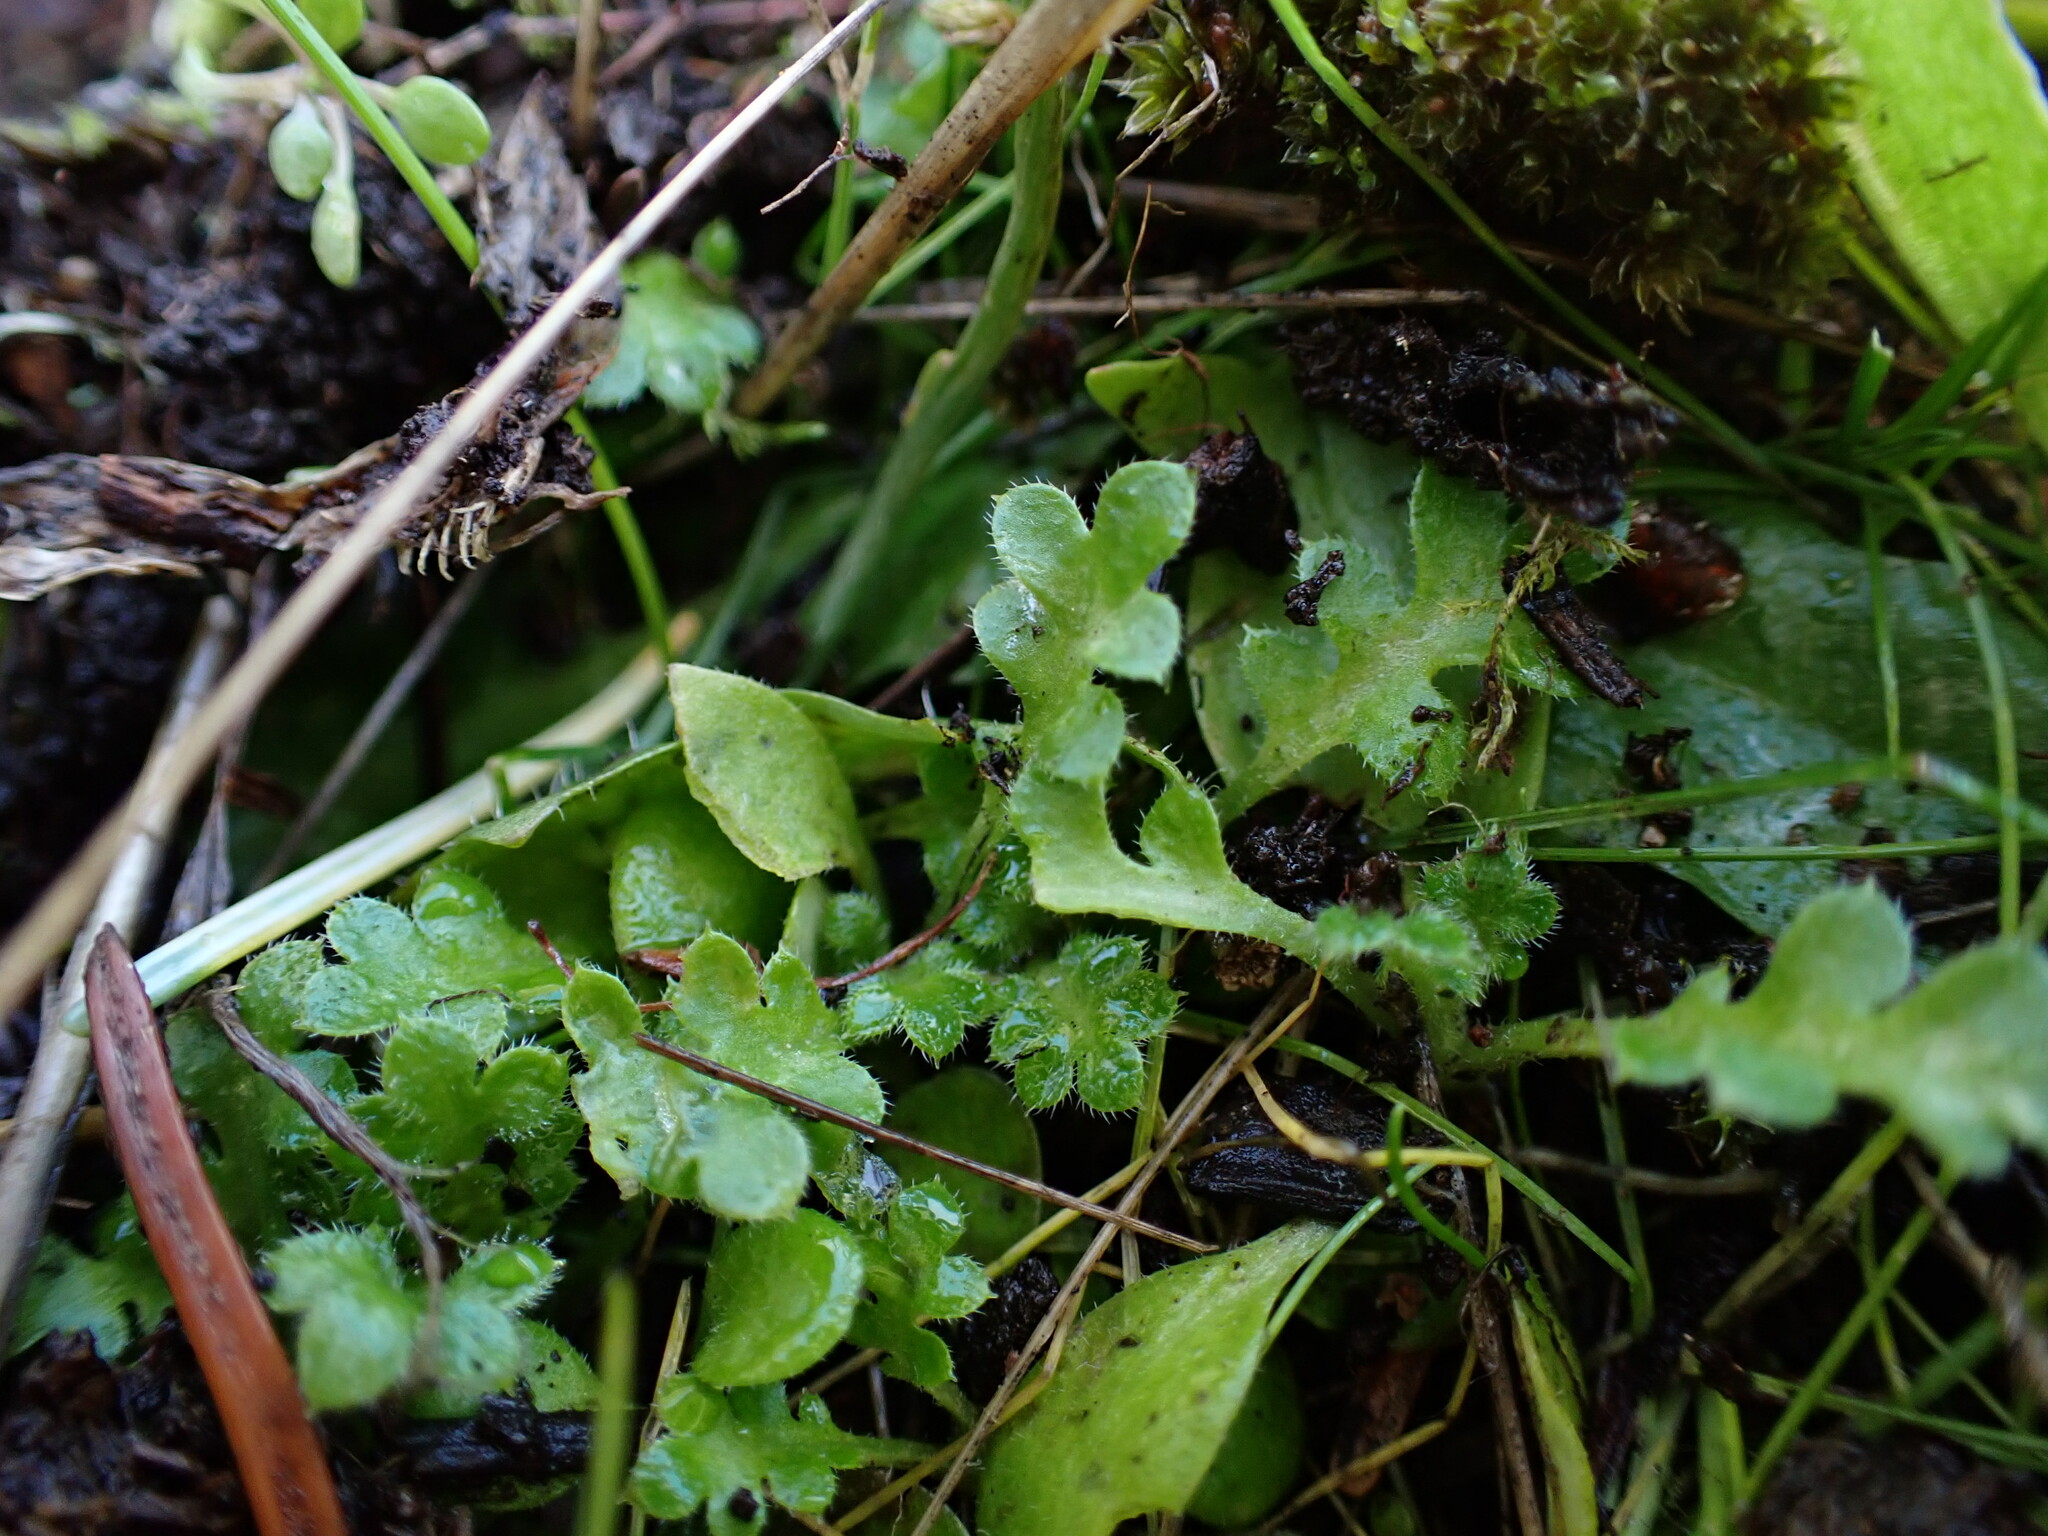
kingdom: Plantae
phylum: Tracheophyta
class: Magnoliopsida
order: Boraginales
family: Hydrophyllaceae
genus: Nemophila
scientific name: Nemophila pedunculata
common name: Little-foot baby-blue-eyes
